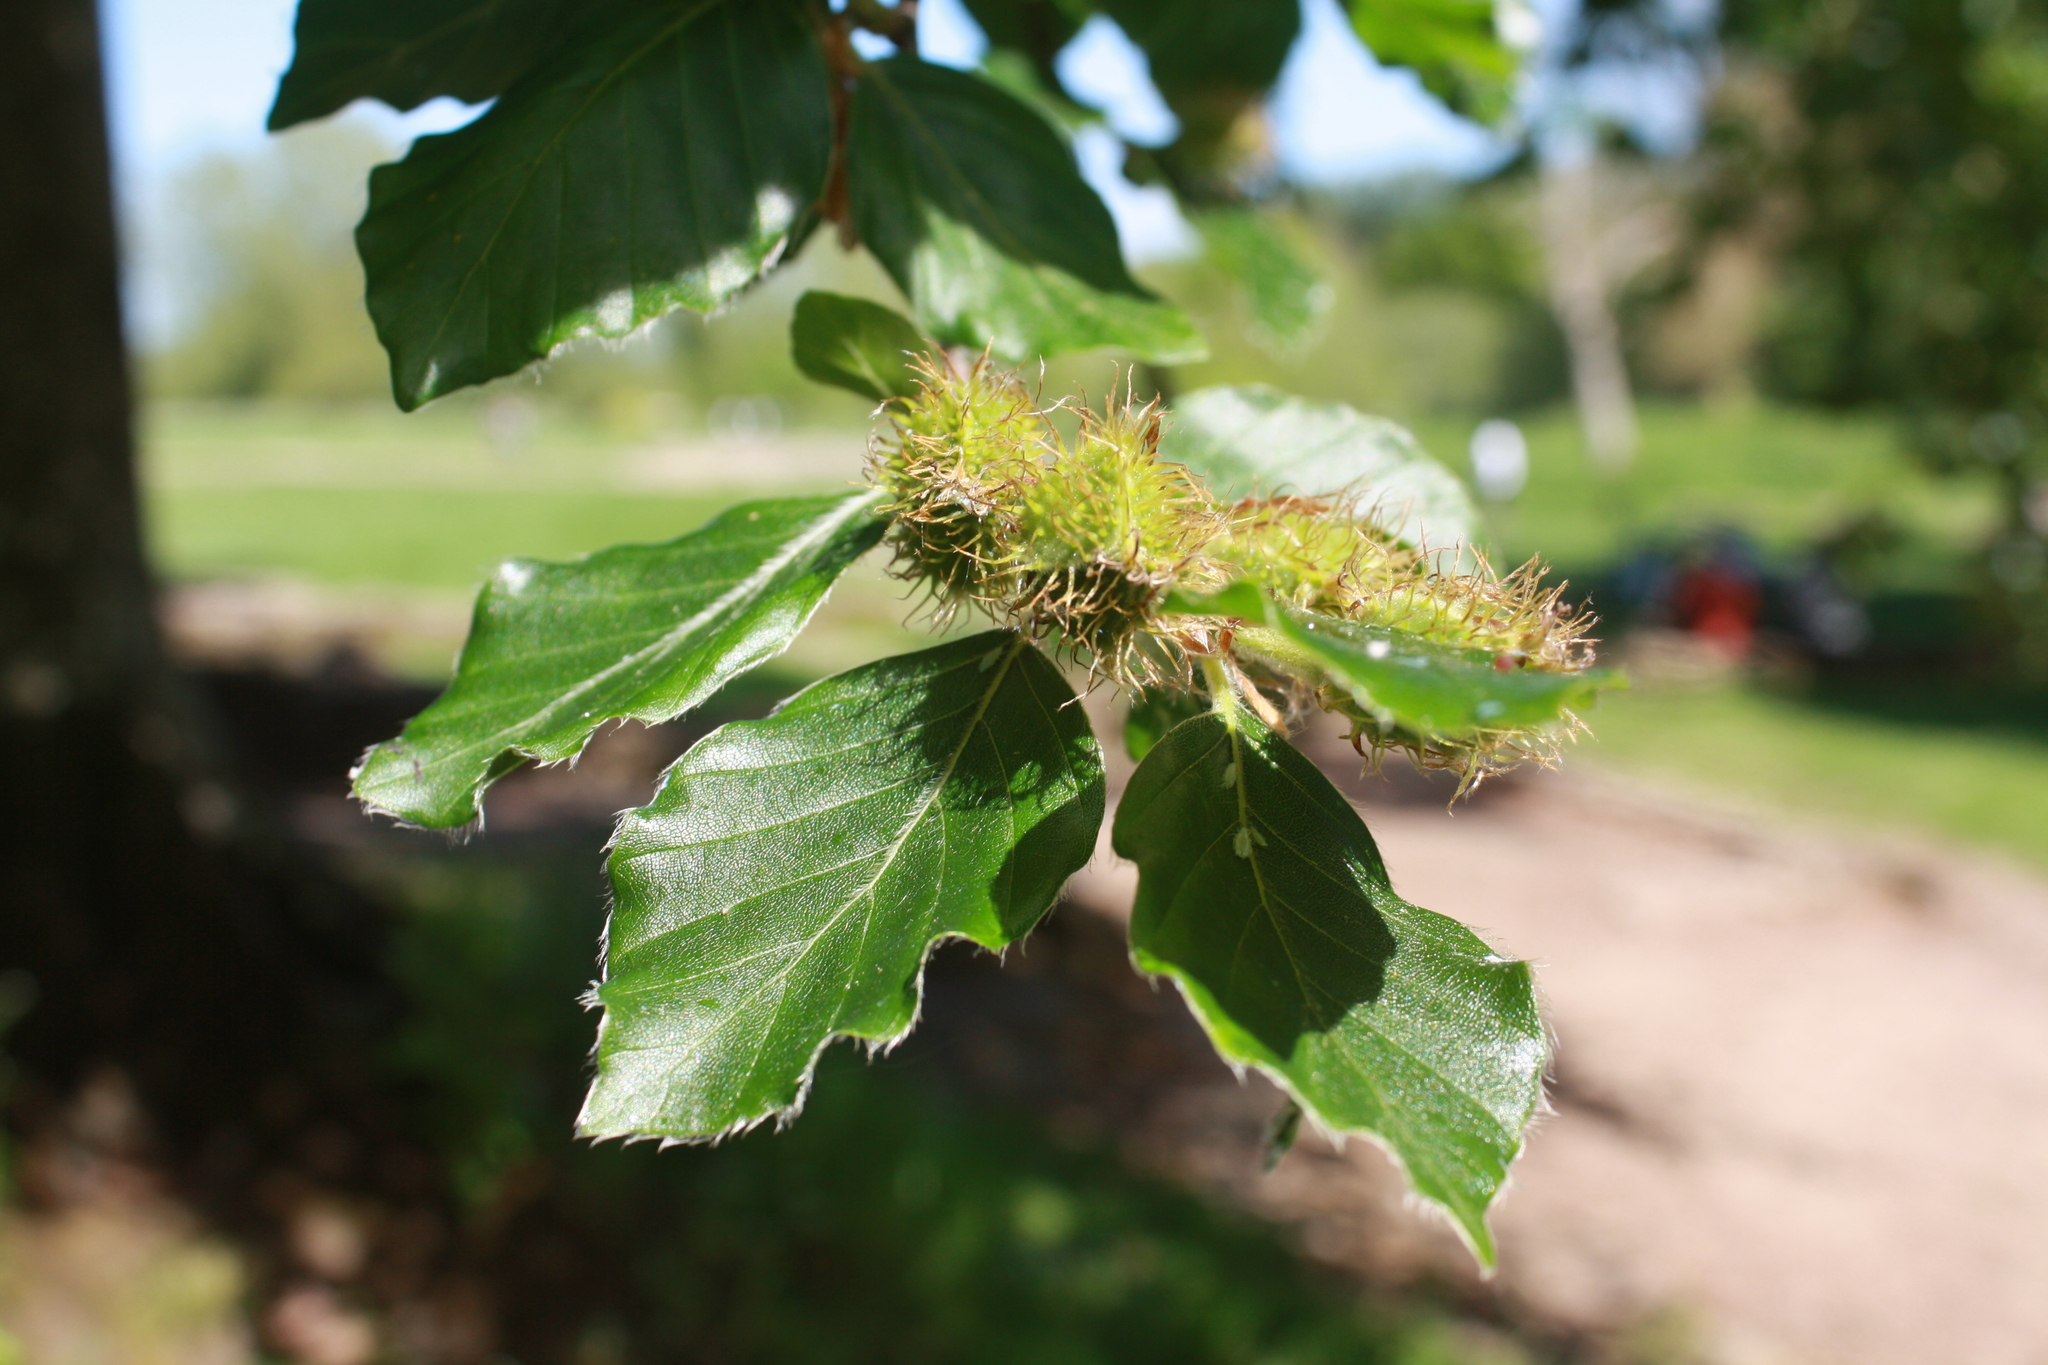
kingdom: Plantae
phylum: Tracheophyta
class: Magnoliopsida
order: Fagales
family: Fagaceae
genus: Fagus
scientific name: Fagus sylvatica
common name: Beech
